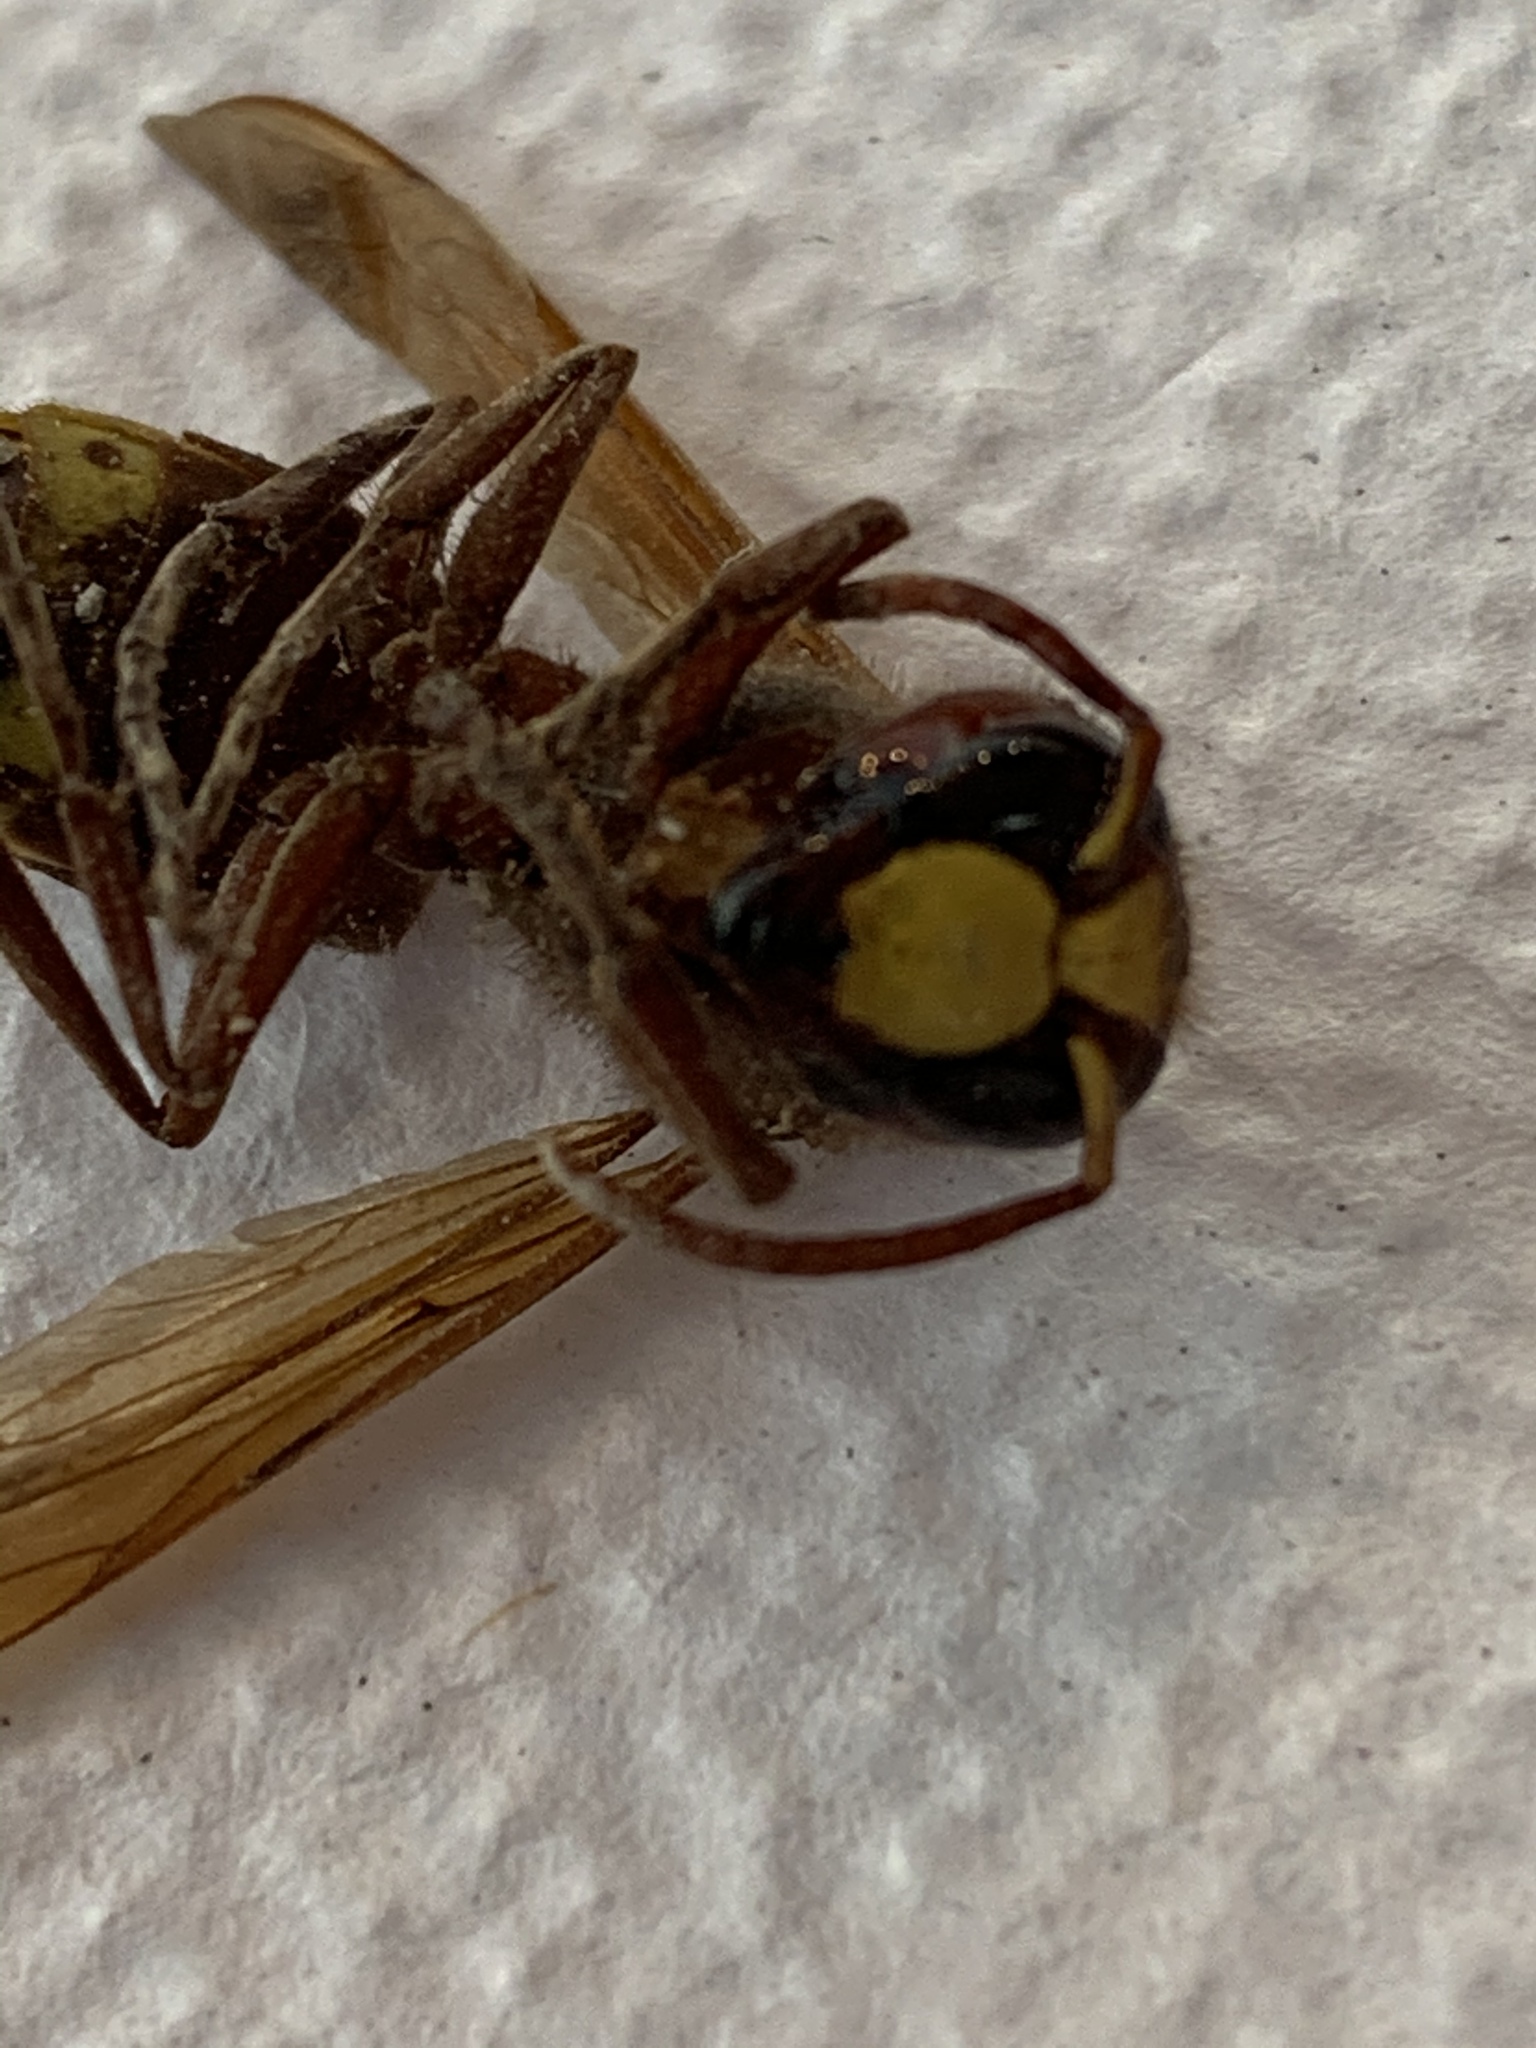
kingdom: Animalia
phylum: Arthropoda
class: Insecta
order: Hymenoptera
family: Vespidae
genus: Vespa
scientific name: Vespa orientalis
